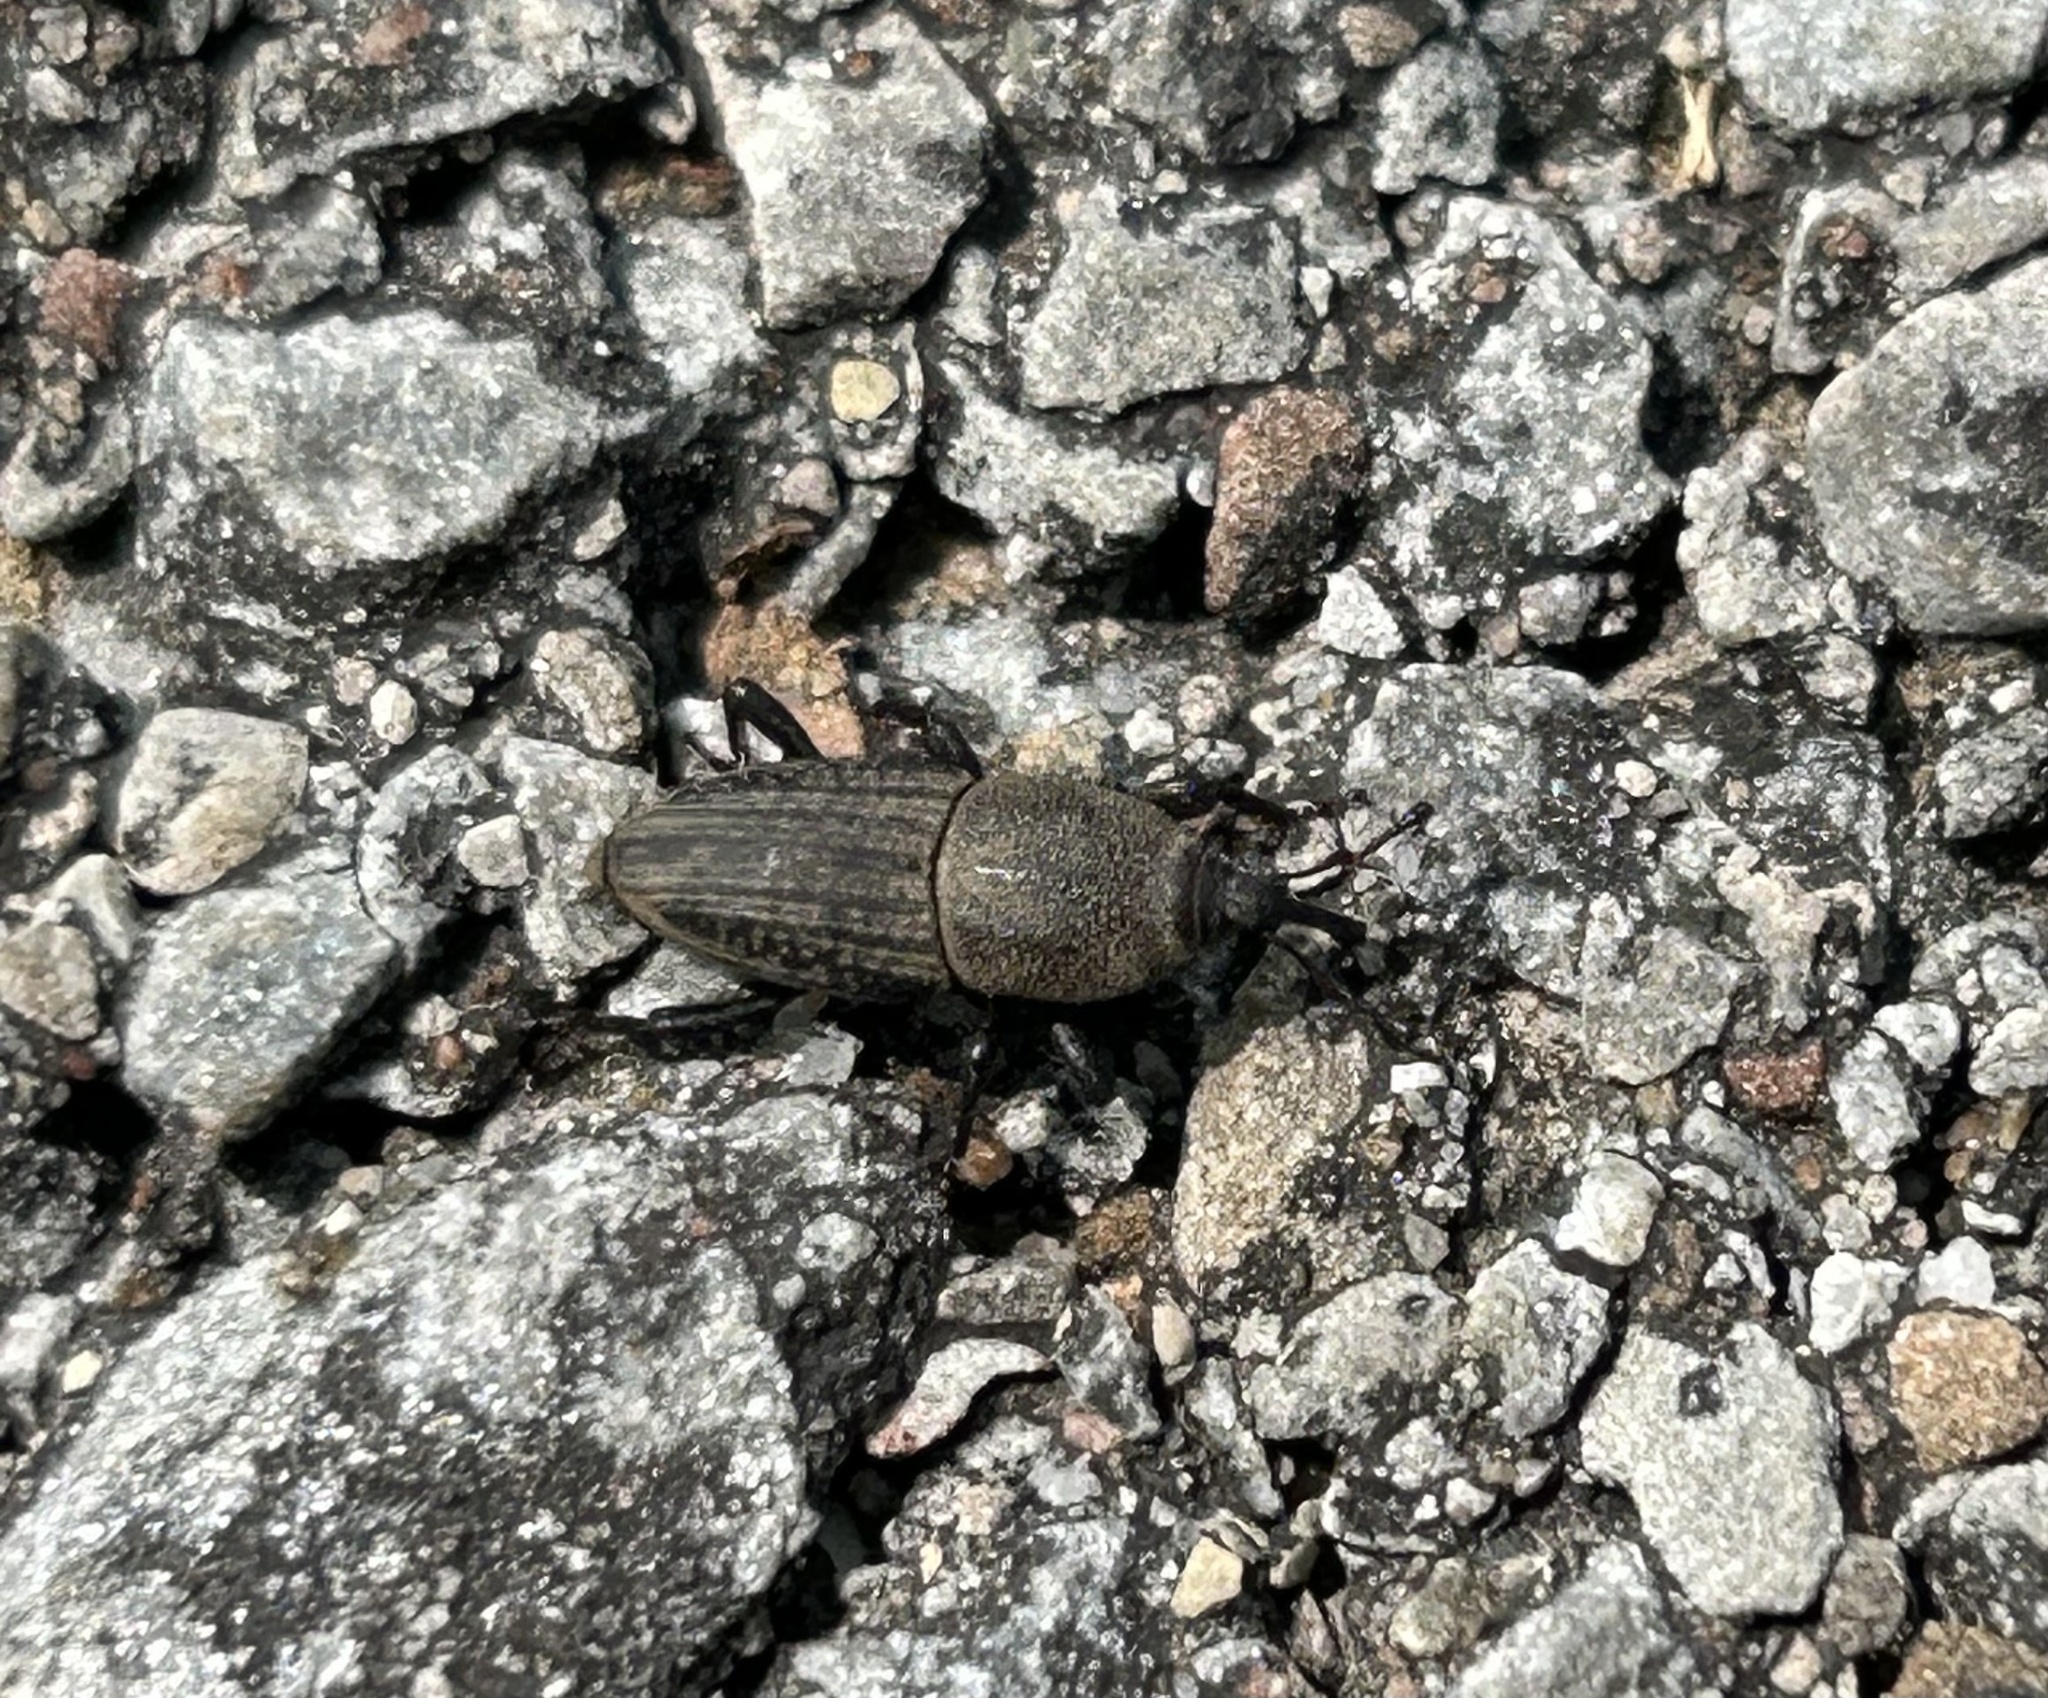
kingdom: Animalia
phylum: Arthropoda
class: Insecta
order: Coleoptera
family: Dryophthoridae
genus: Sphenophorus
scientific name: Sphenophorus interstitialis
